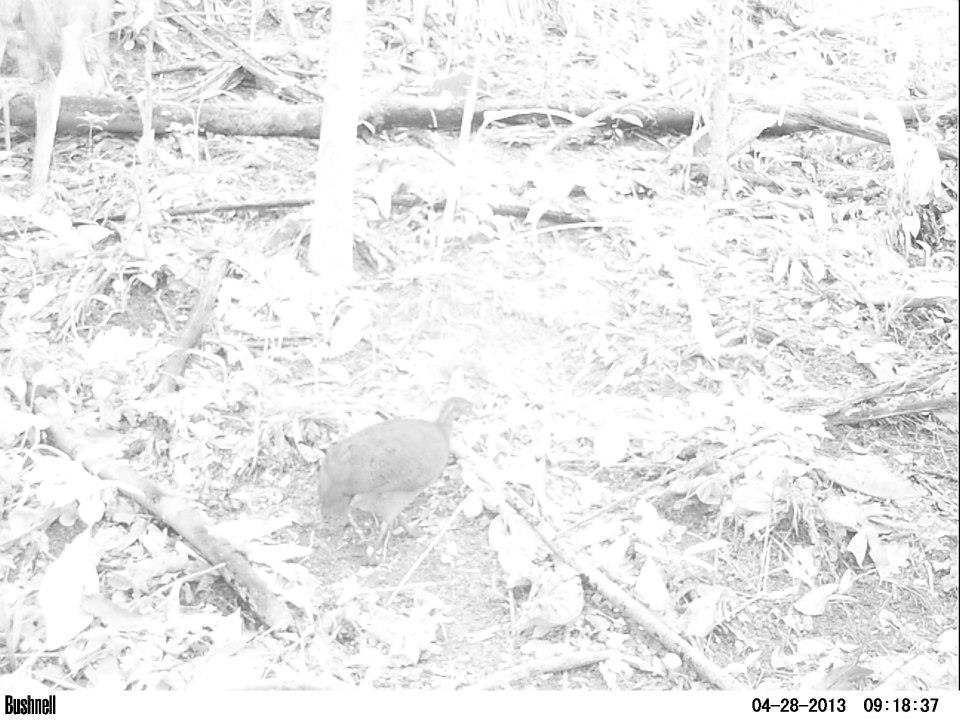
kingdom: Animalia
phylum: Chordata
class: Aves
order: Tinamiformes
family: Tinamidae
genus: Tinamus
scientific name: Tinamus solitarius
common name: Solitary tinamou
